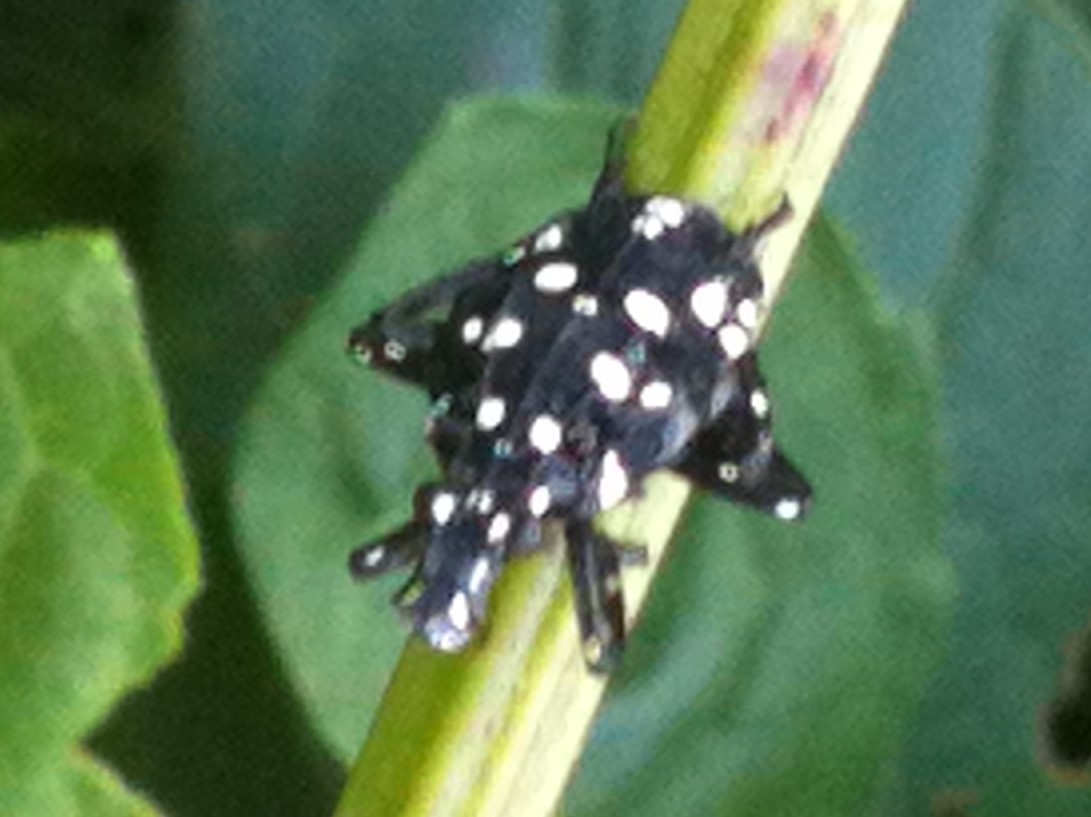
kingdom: Animalia
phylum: Arthropoda
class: Insecta
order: Hemiptera
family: Fulgoridae
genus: Lycorma
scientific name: Lycorma delicatula
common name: Spotted lanternfly
